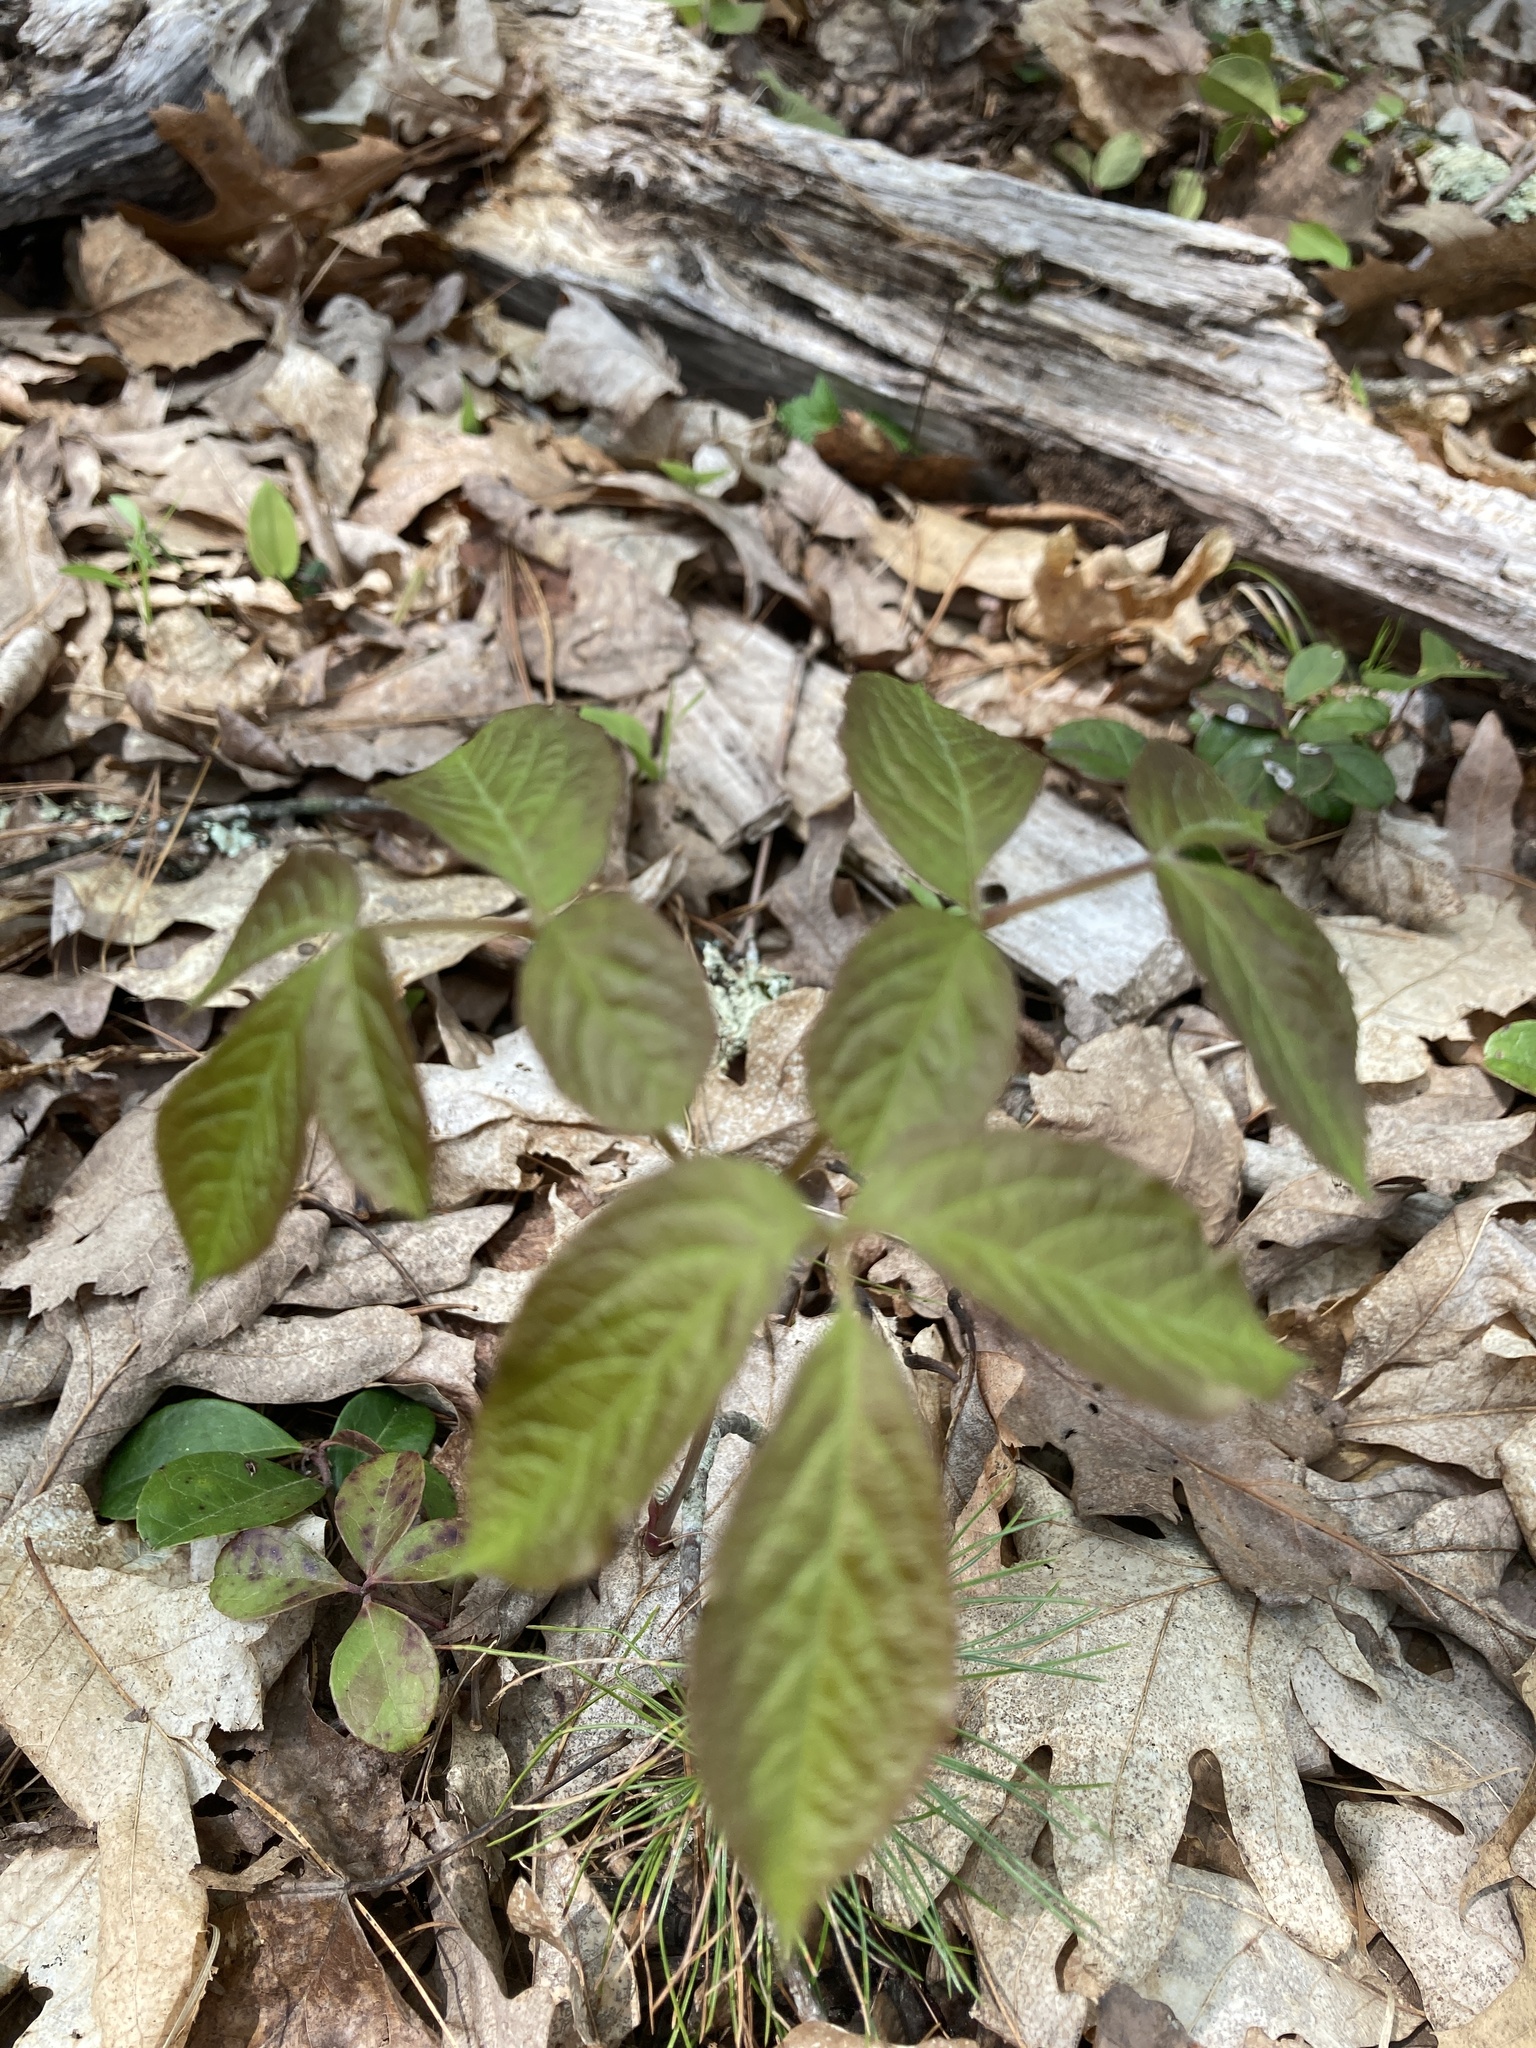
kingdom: Plantae
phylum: Tracheophyta
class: Magnoliopsida
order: Apiales
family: Araliaceae
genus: Aralia
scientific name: Aralia nudicaulis
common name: Wild sarsaparilla
